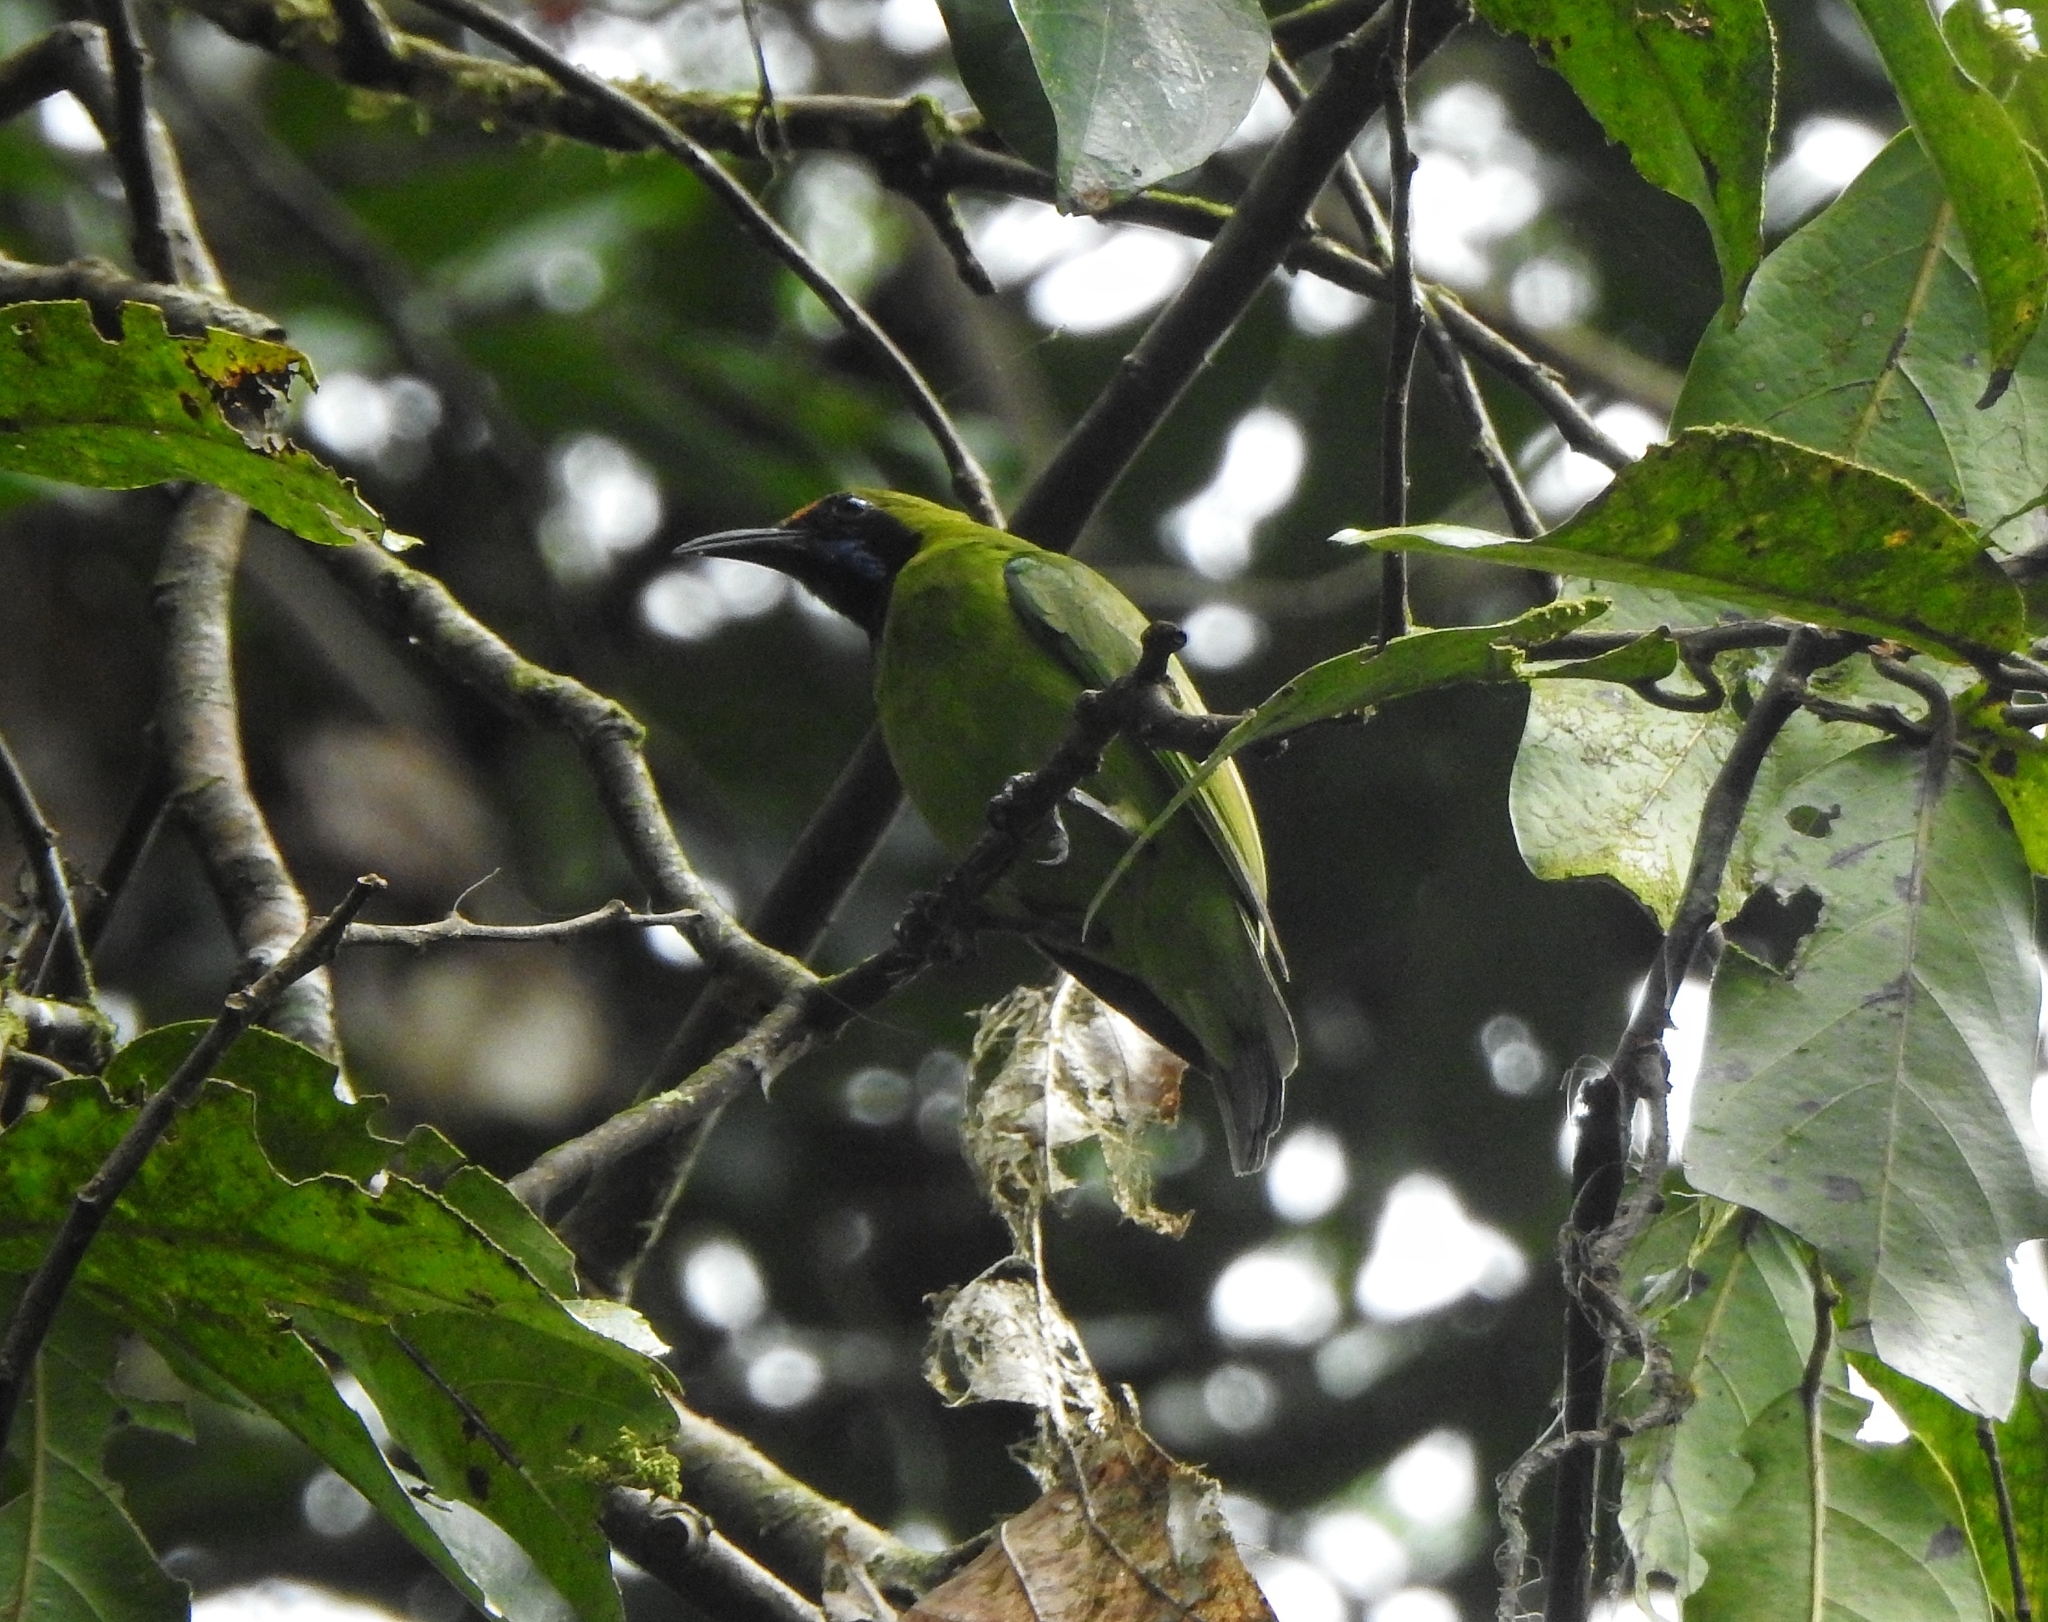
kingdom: Animalia
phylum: Chordata
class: Aves
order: Passeriformes
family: Chloropseidae
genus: Chloropsis
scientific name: Chloropsis aurifrons
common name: Golden-fronted leafbird
